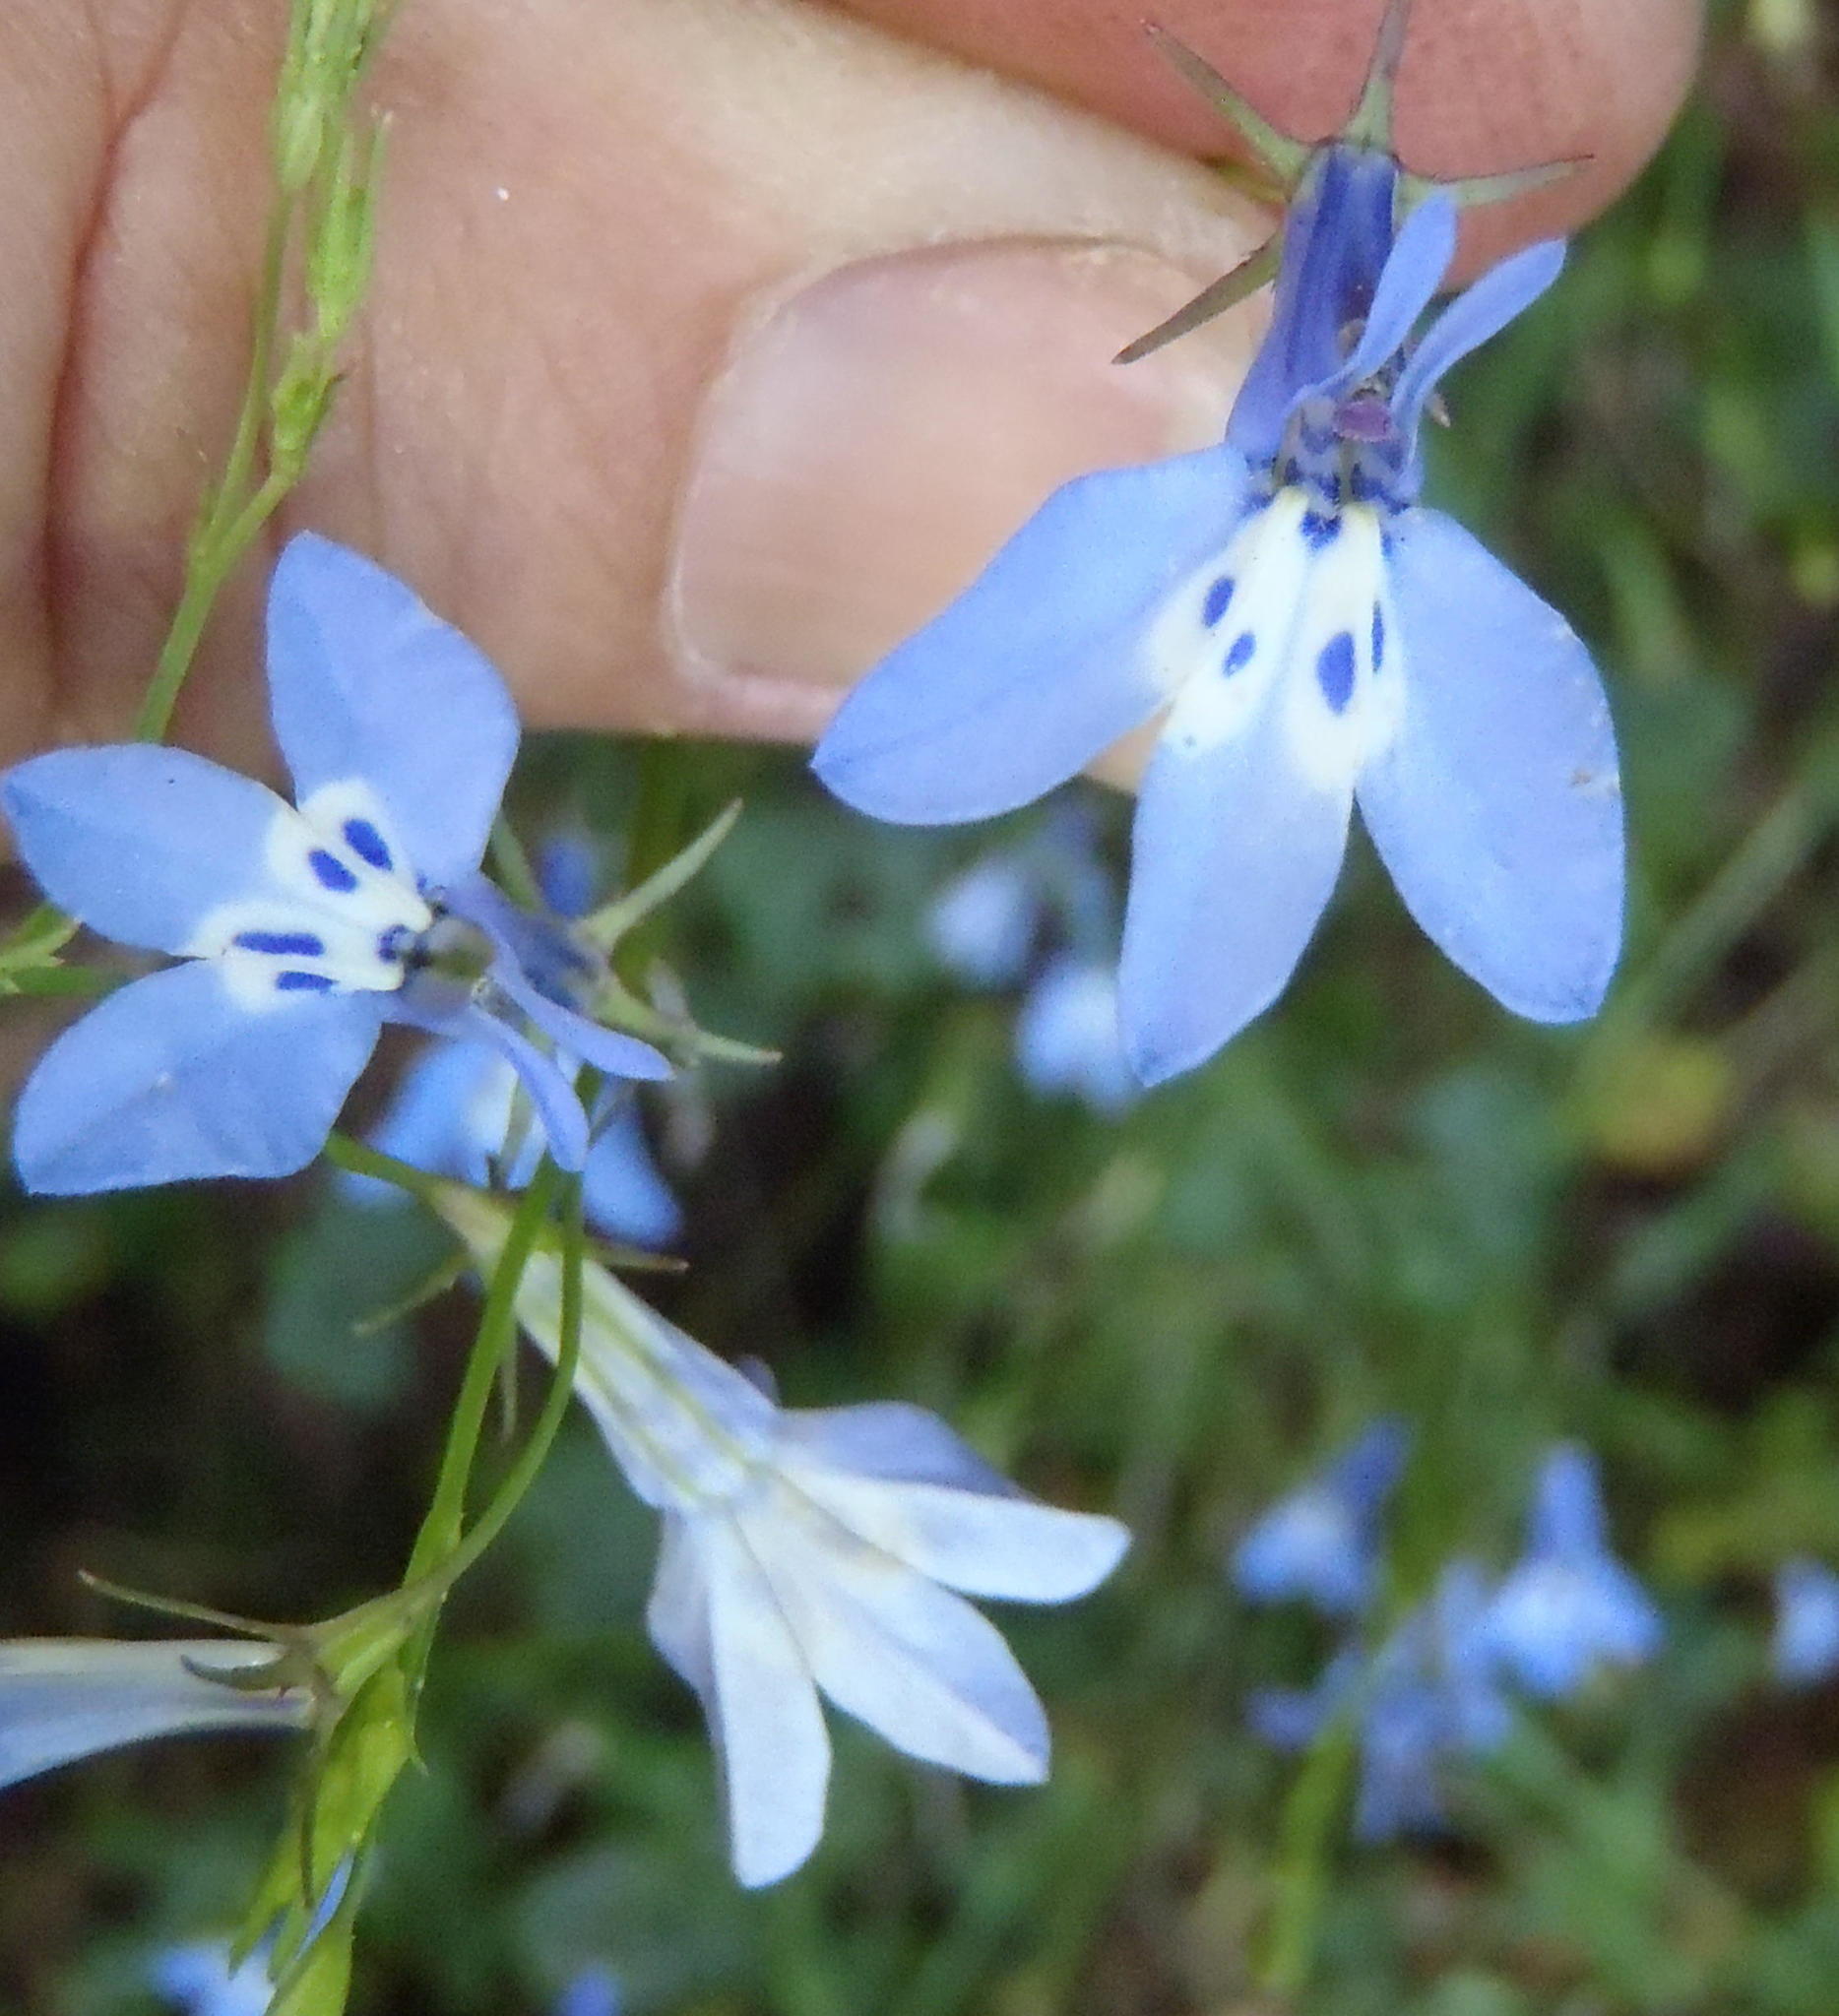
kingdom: Plantae
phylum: Tracheophyta
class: Magnoliopsida
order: Asterales
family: Campanulaceae
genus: Lobelia
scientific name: Lobelia flaccida
